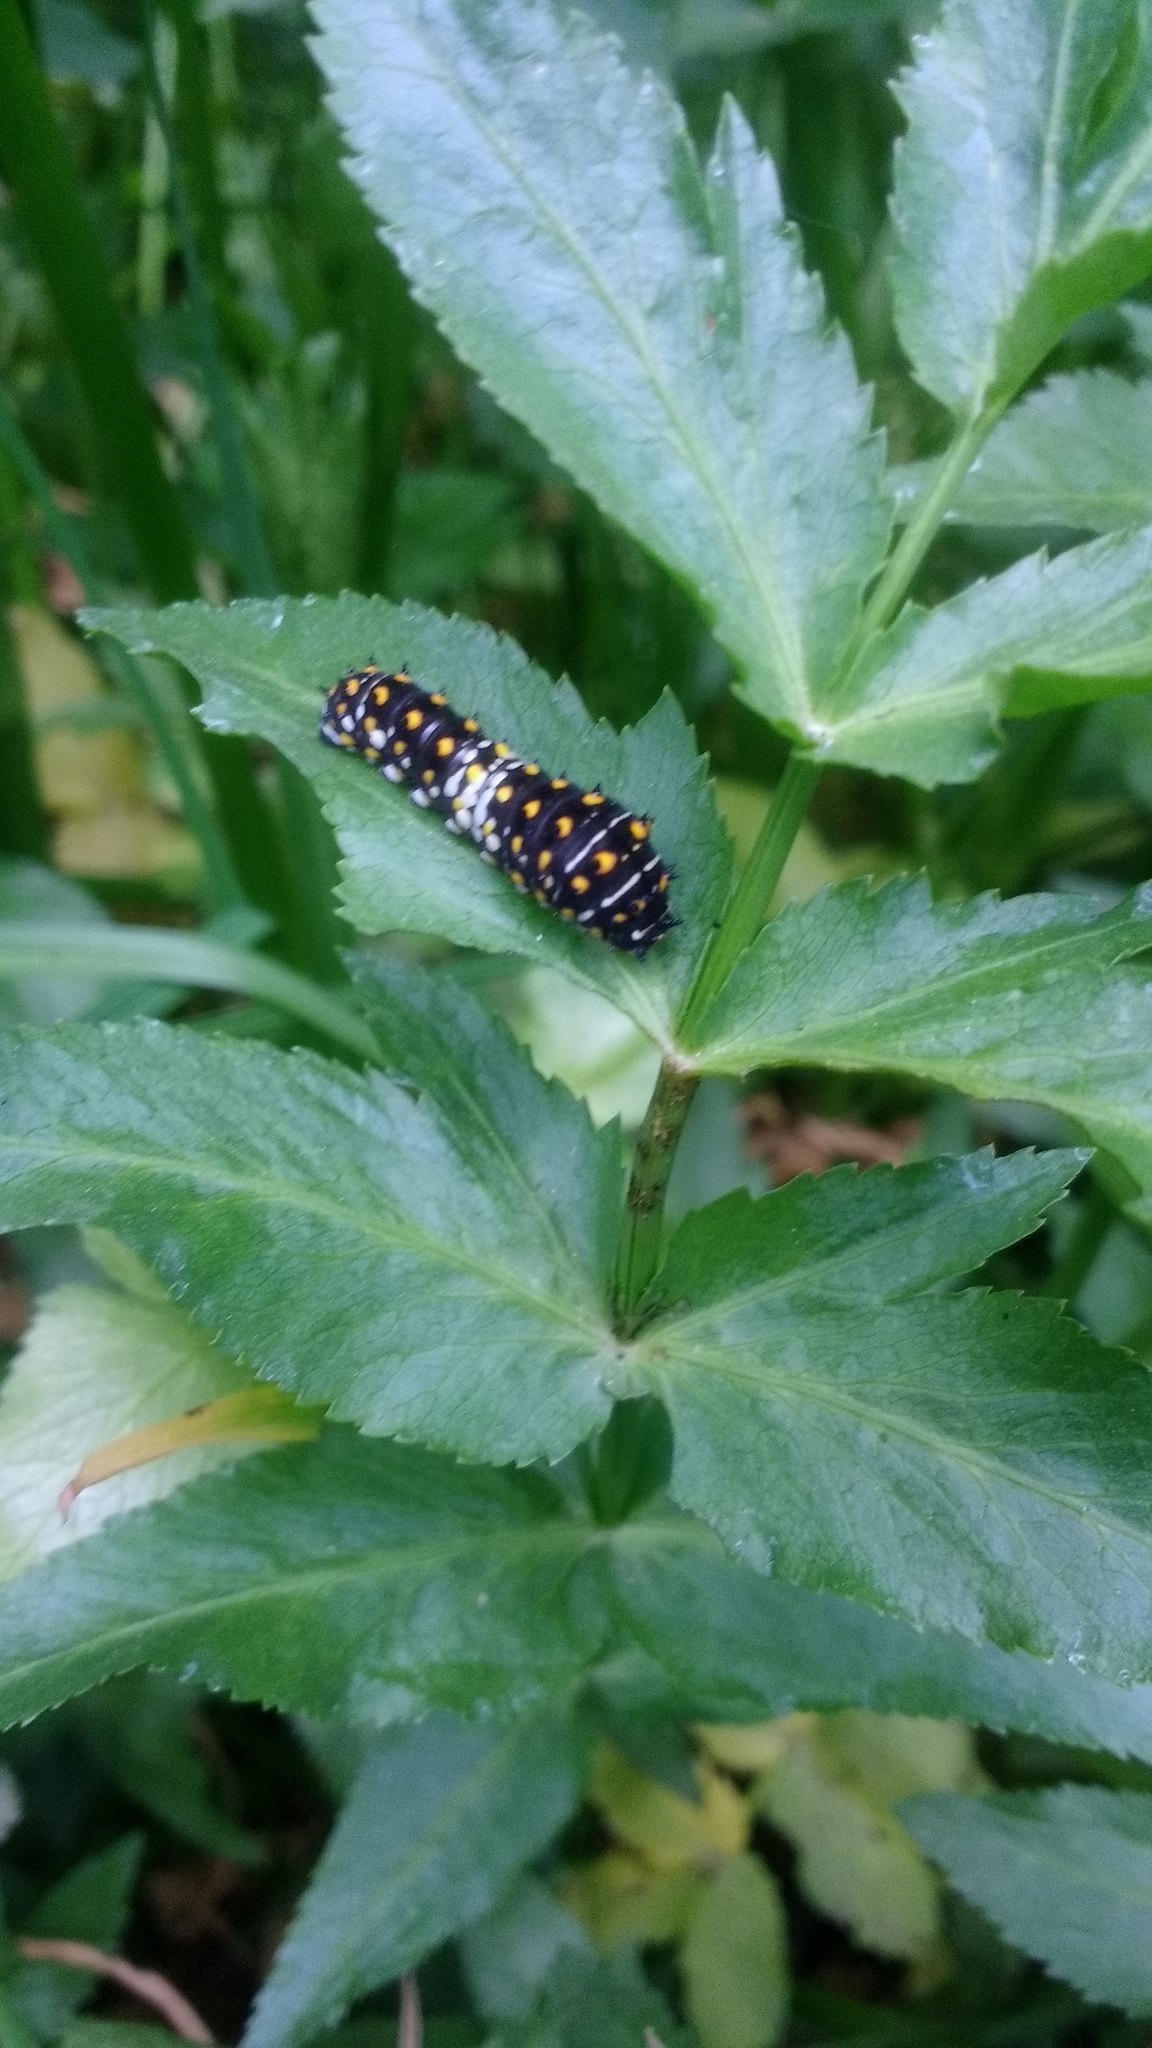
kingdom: Animalia
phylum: Arthropoda
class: Insecta
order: Lepidoptera
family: Papilionidae
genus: Papilio
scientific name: Papilio polyxenes
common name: Black swallowtail
